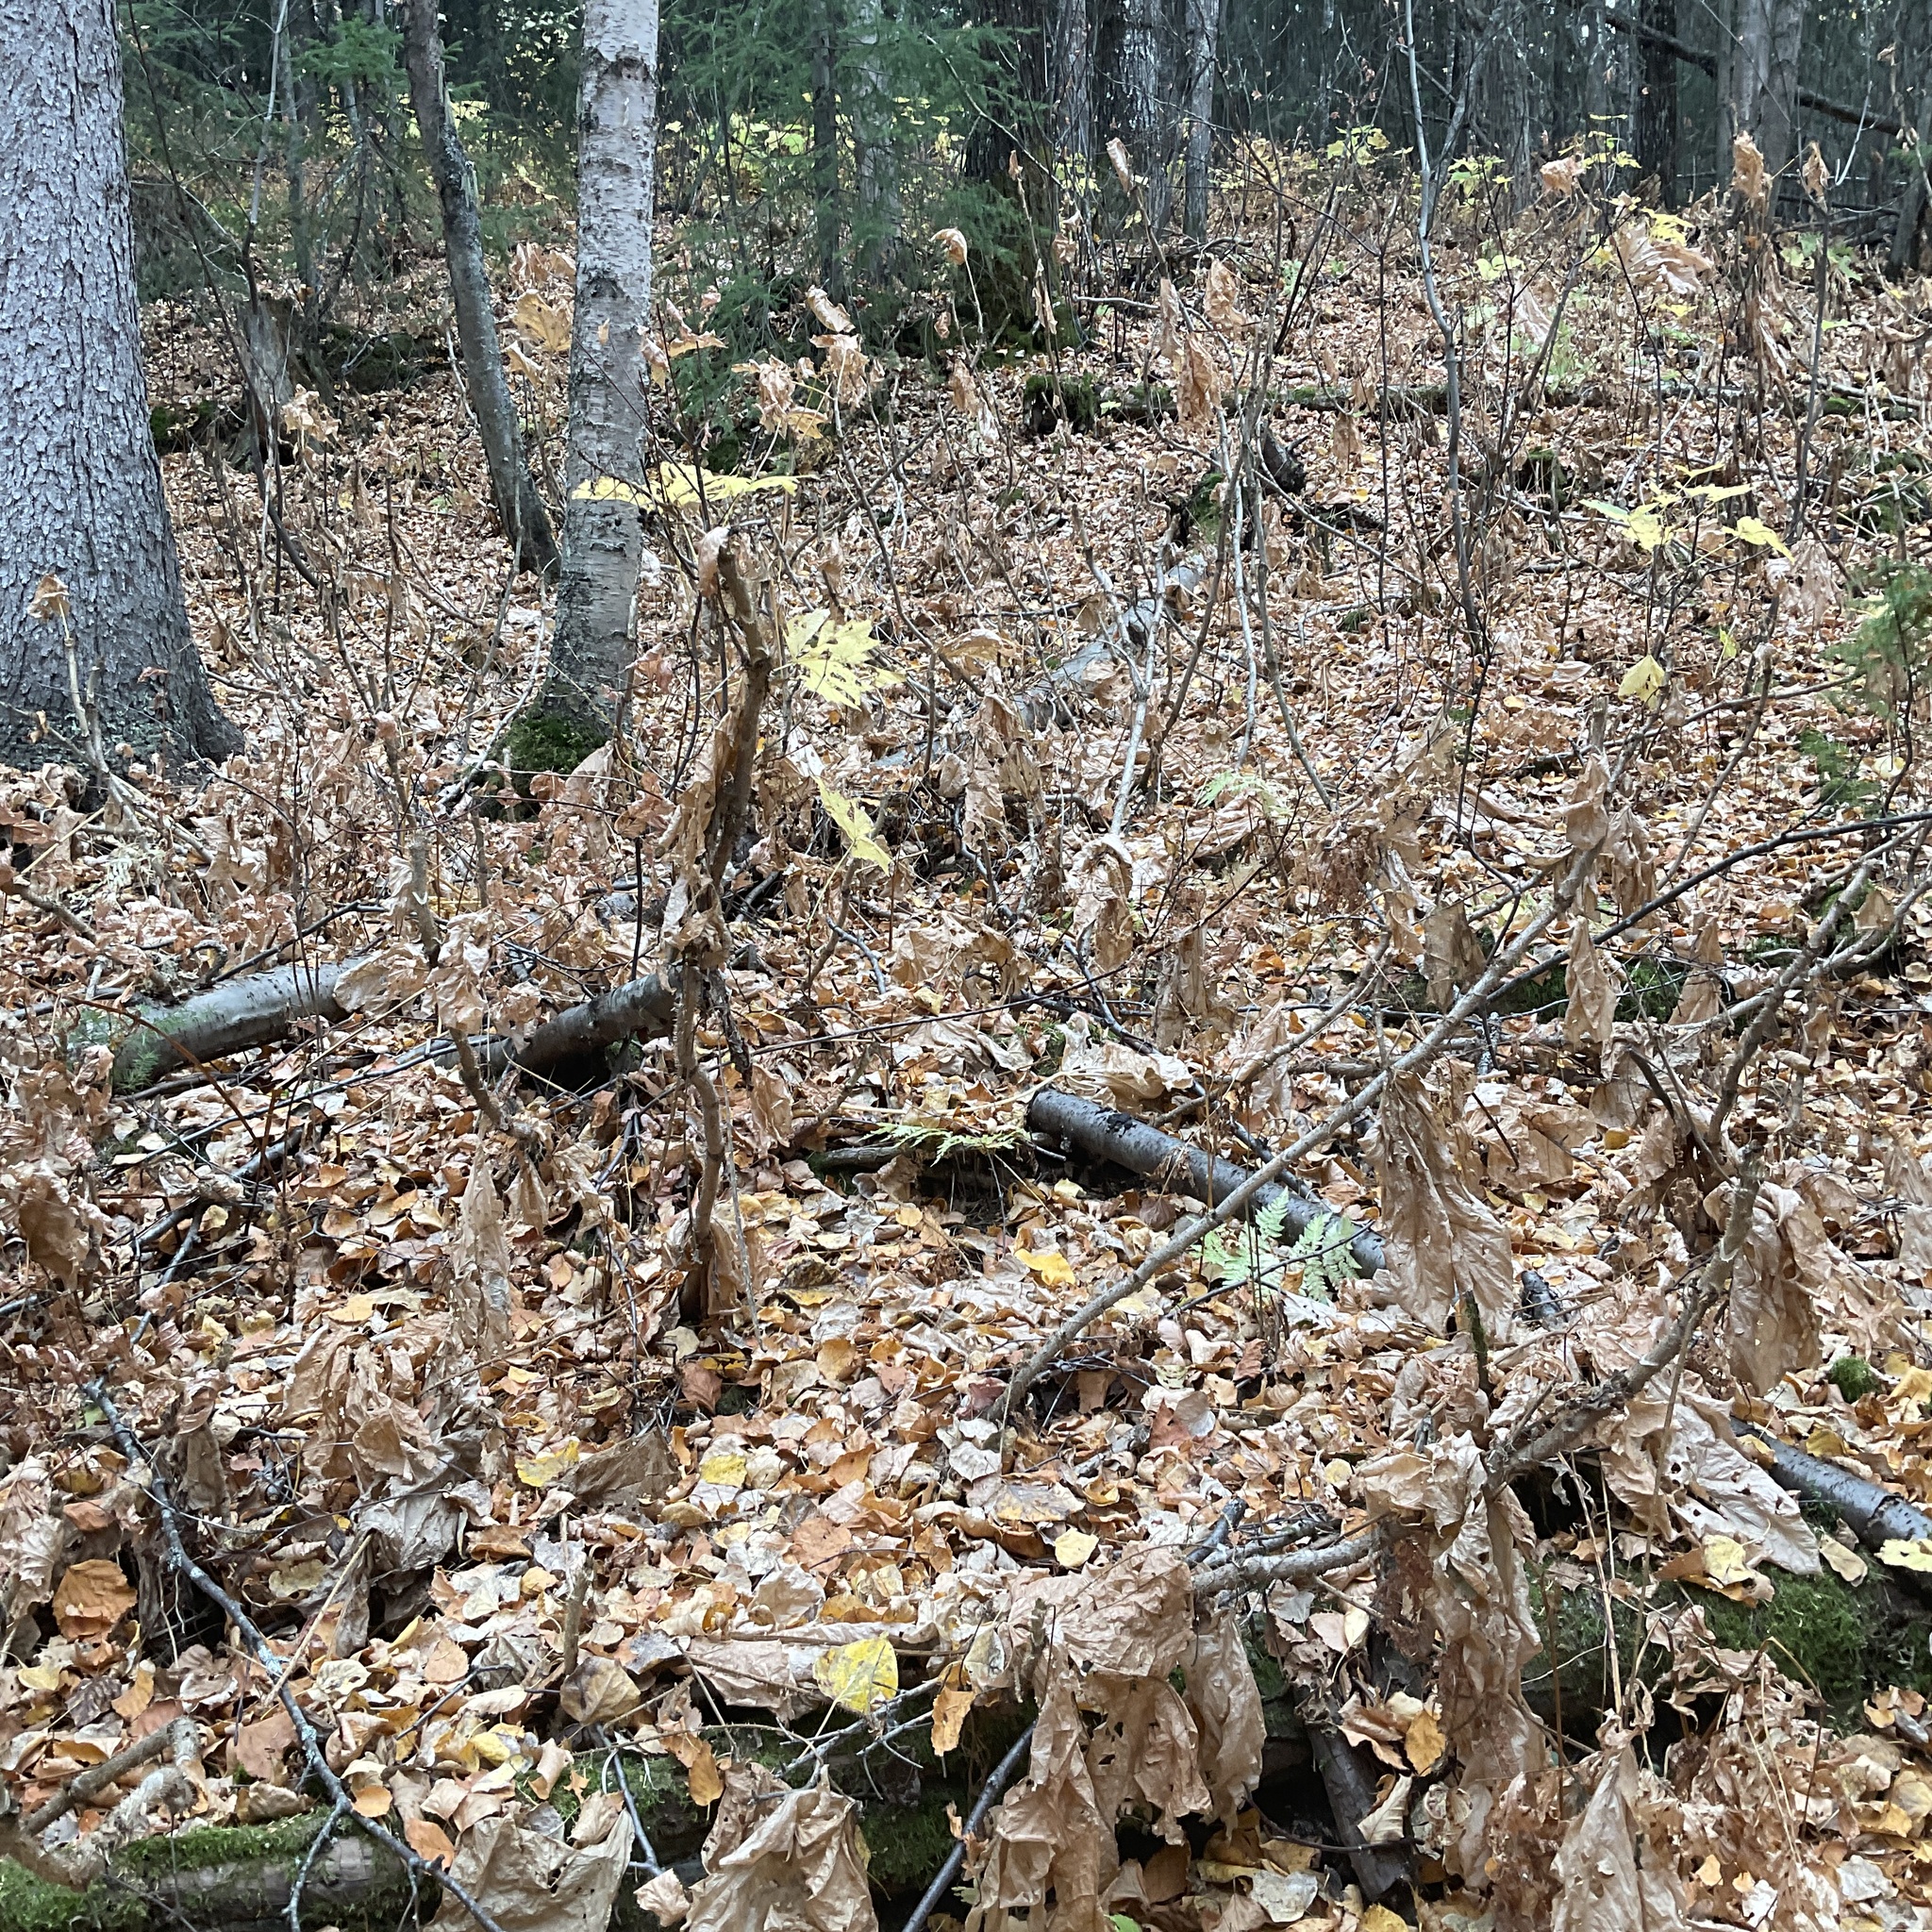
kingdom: Plantae
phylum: Tracheophyta
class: Magnoliopsida
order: Apiales
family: Araliaceae
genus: Oplopanax
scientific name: Oplopanax horridus
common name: Devil's walking-stick
